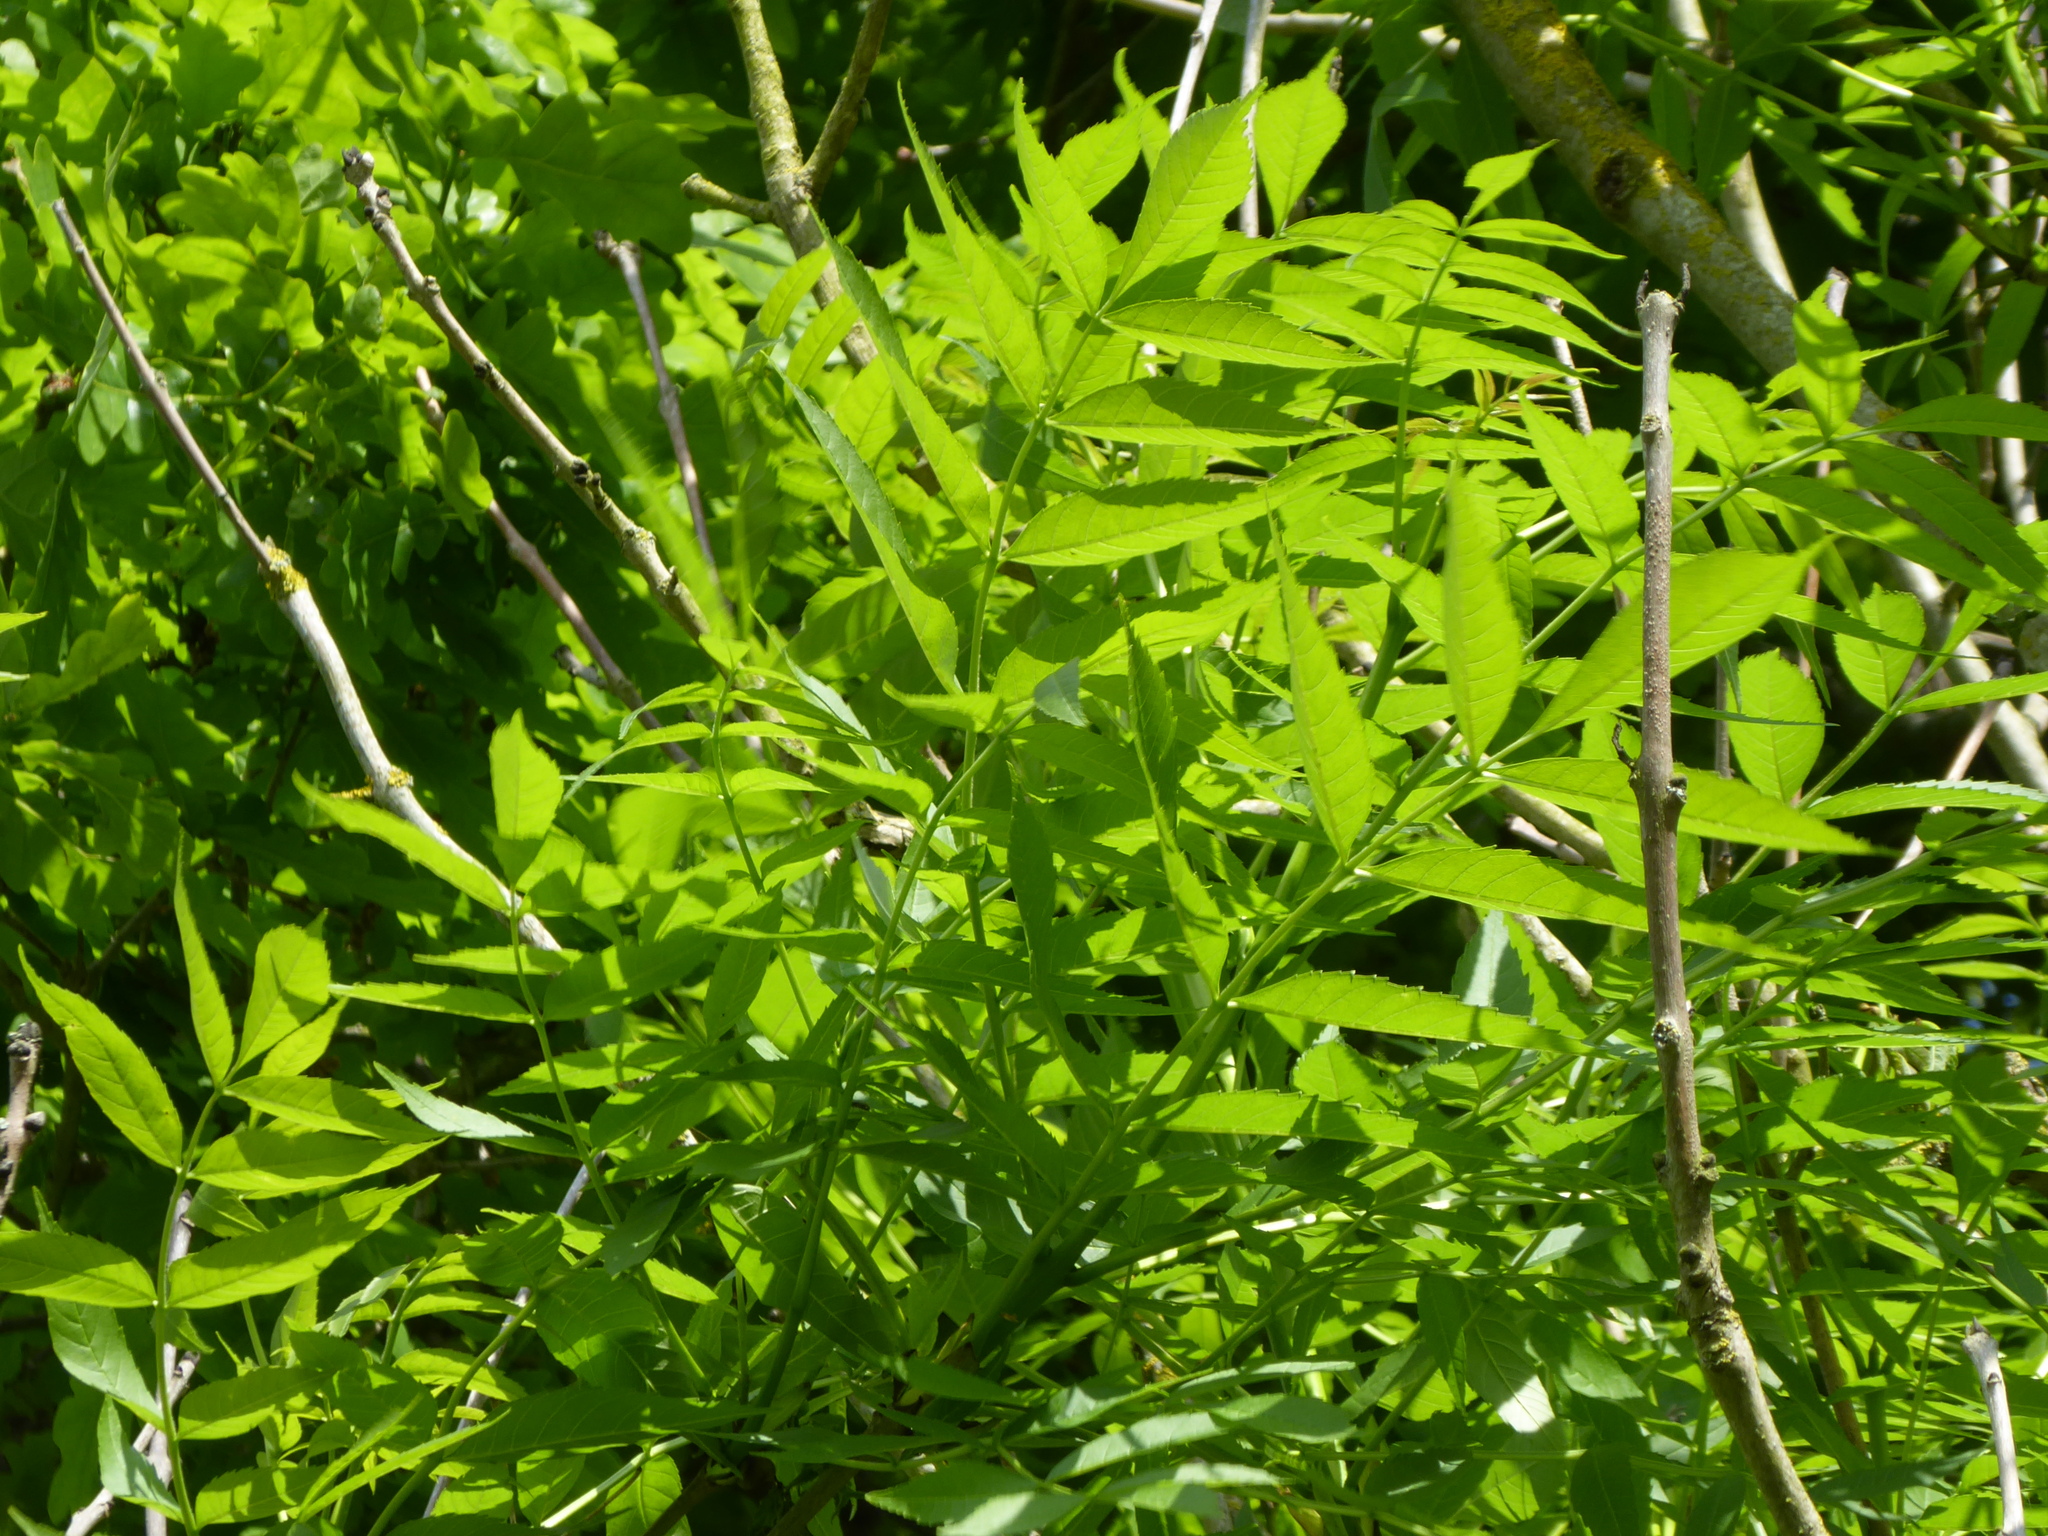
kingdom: Plantae
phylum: Tracheophyta
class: Magnoliopsida
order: Lamiales
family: Oleaceae
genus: Fraxinus
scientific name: Fraxinus excelsior
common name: European ash
